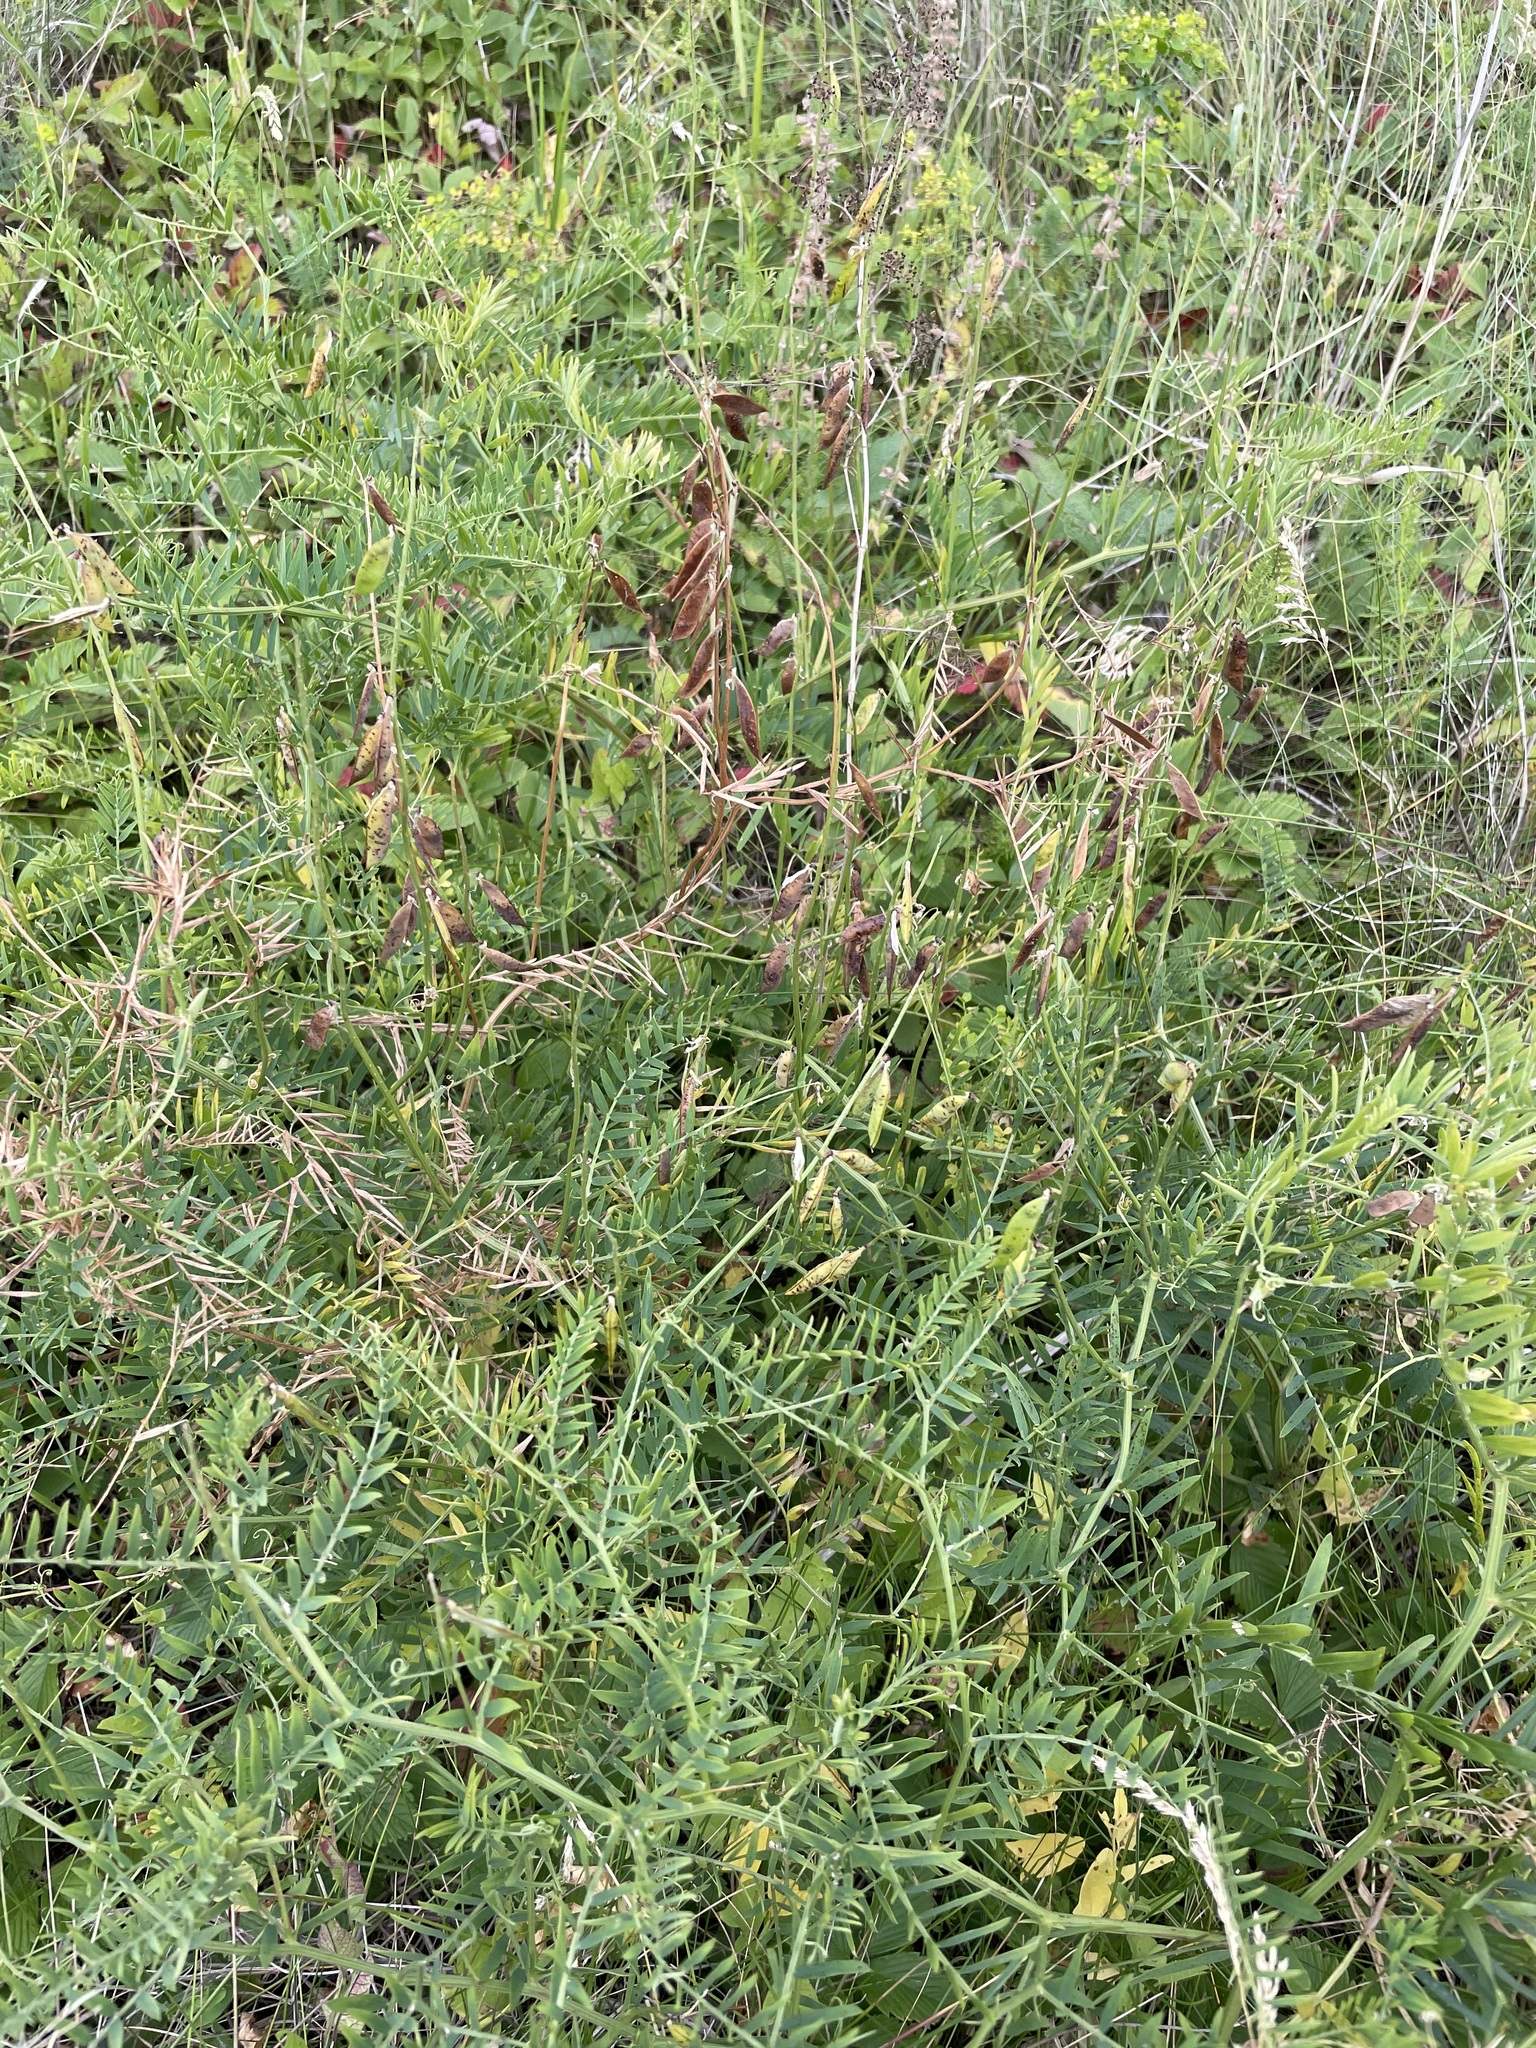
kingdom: Plantae
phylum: Tracheophyta
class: Magnoliopsida
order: Fabales
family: Fabaceae
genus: Vicia
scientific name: Vicia tenuifolia
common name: Fine-leaved vetch
